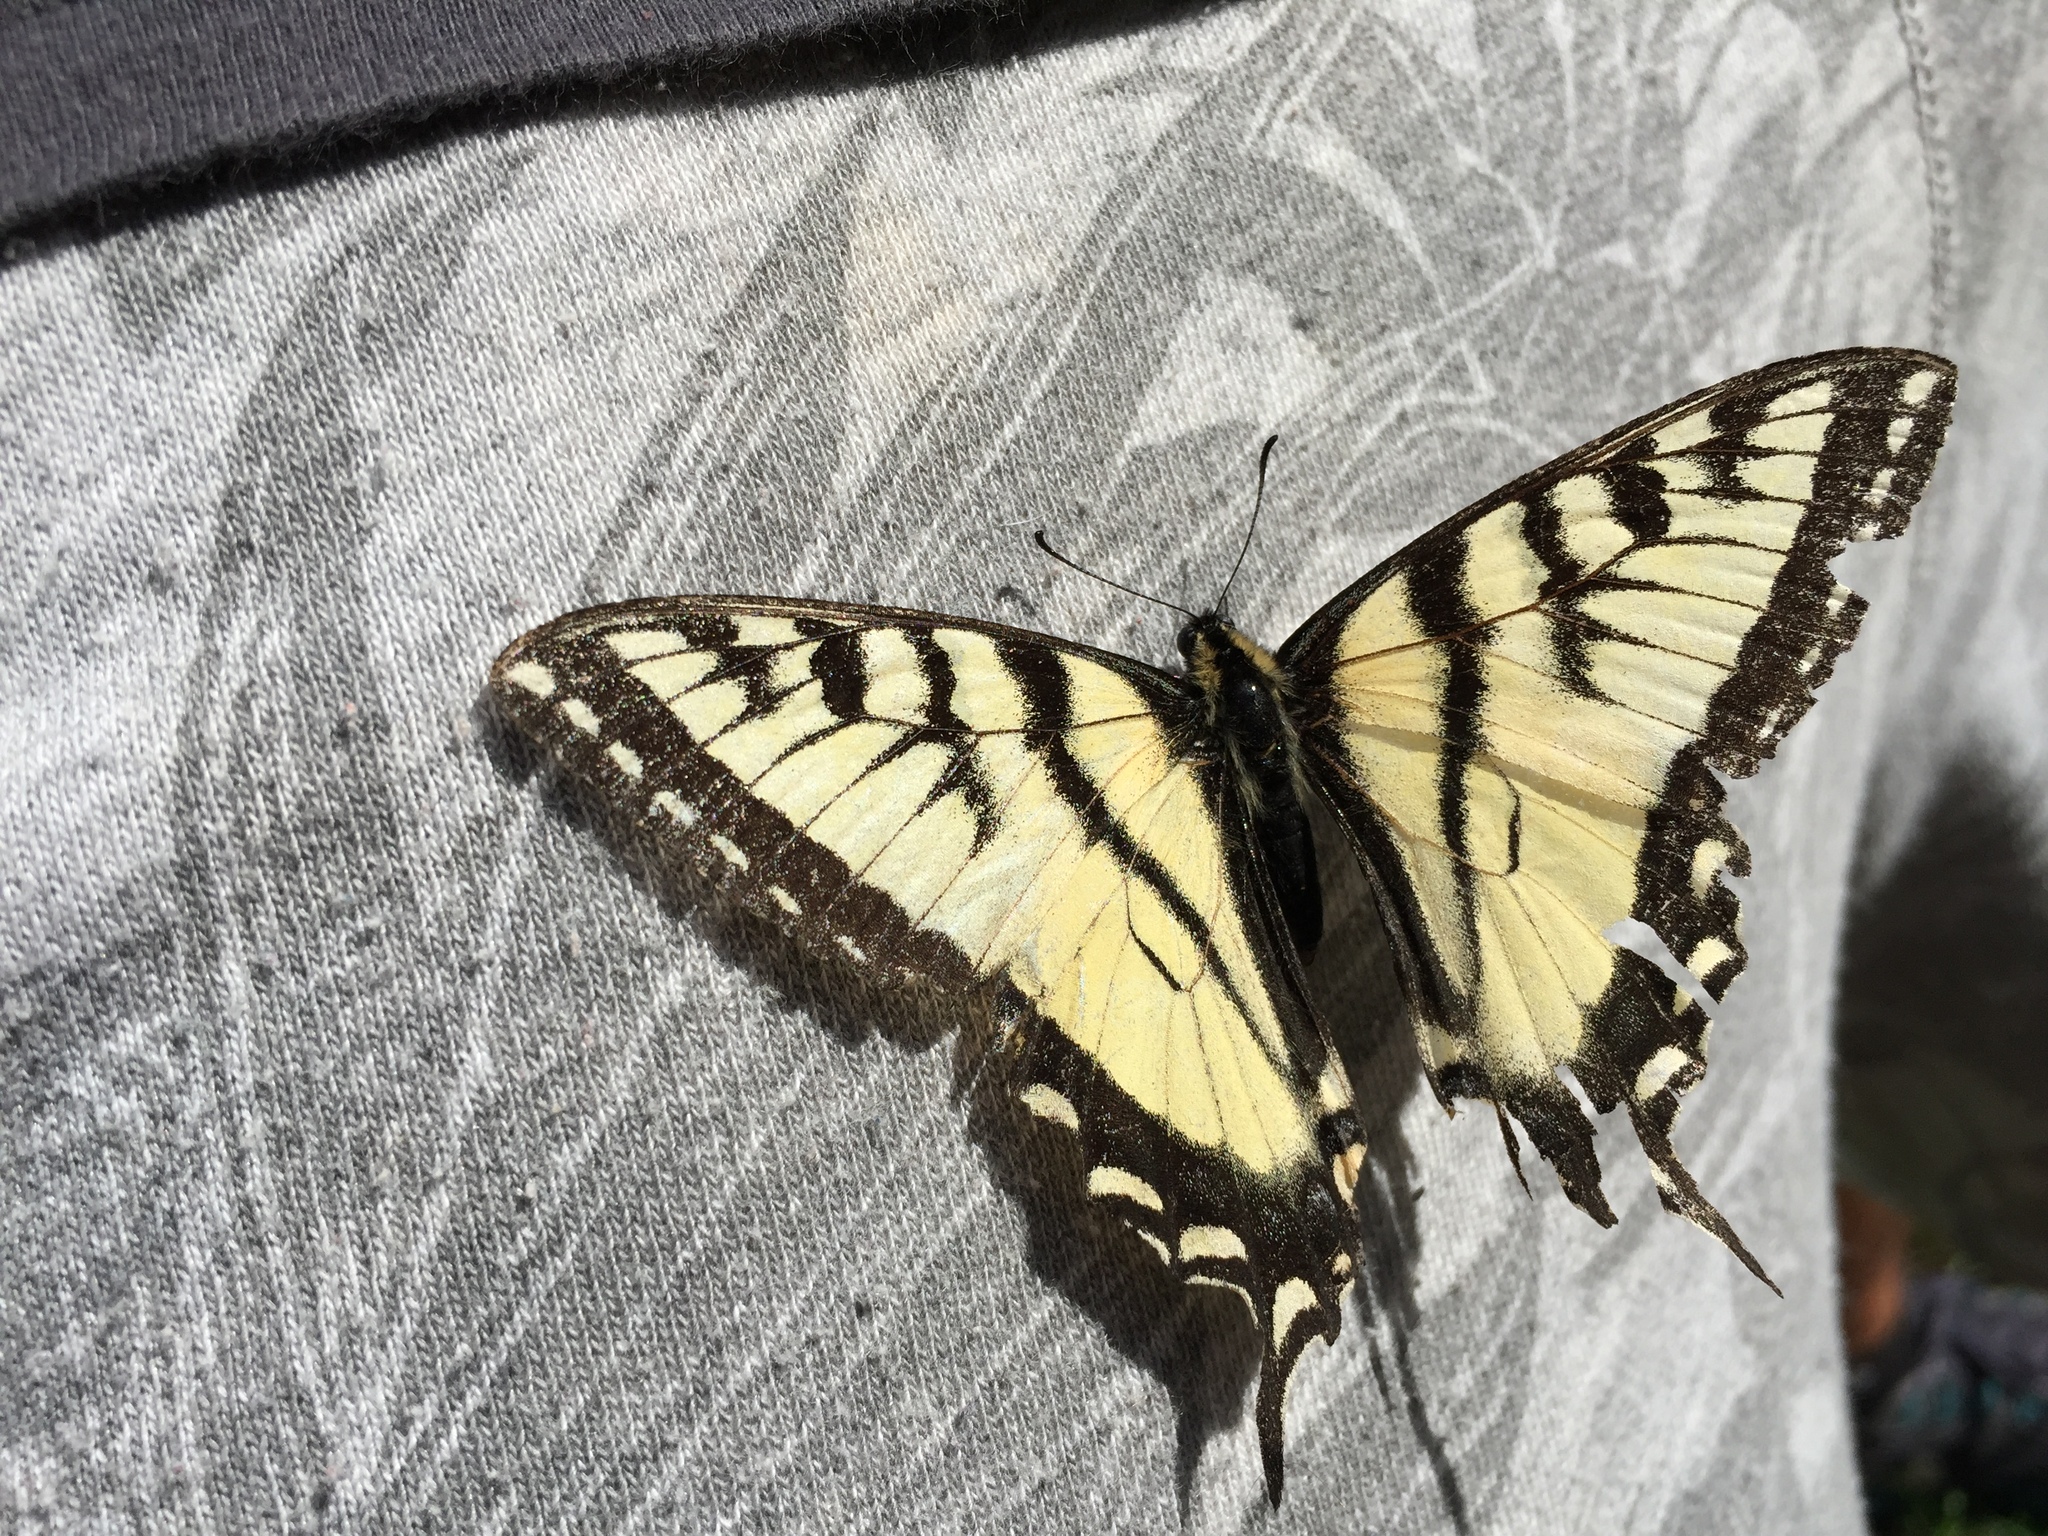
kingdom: Animalia
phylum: Arthropoda
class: Insecta
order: Lepidoptera
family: Papilionidae
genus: Papilio
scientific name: Papilio canadensis
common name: Canadian tiger swallowtail
